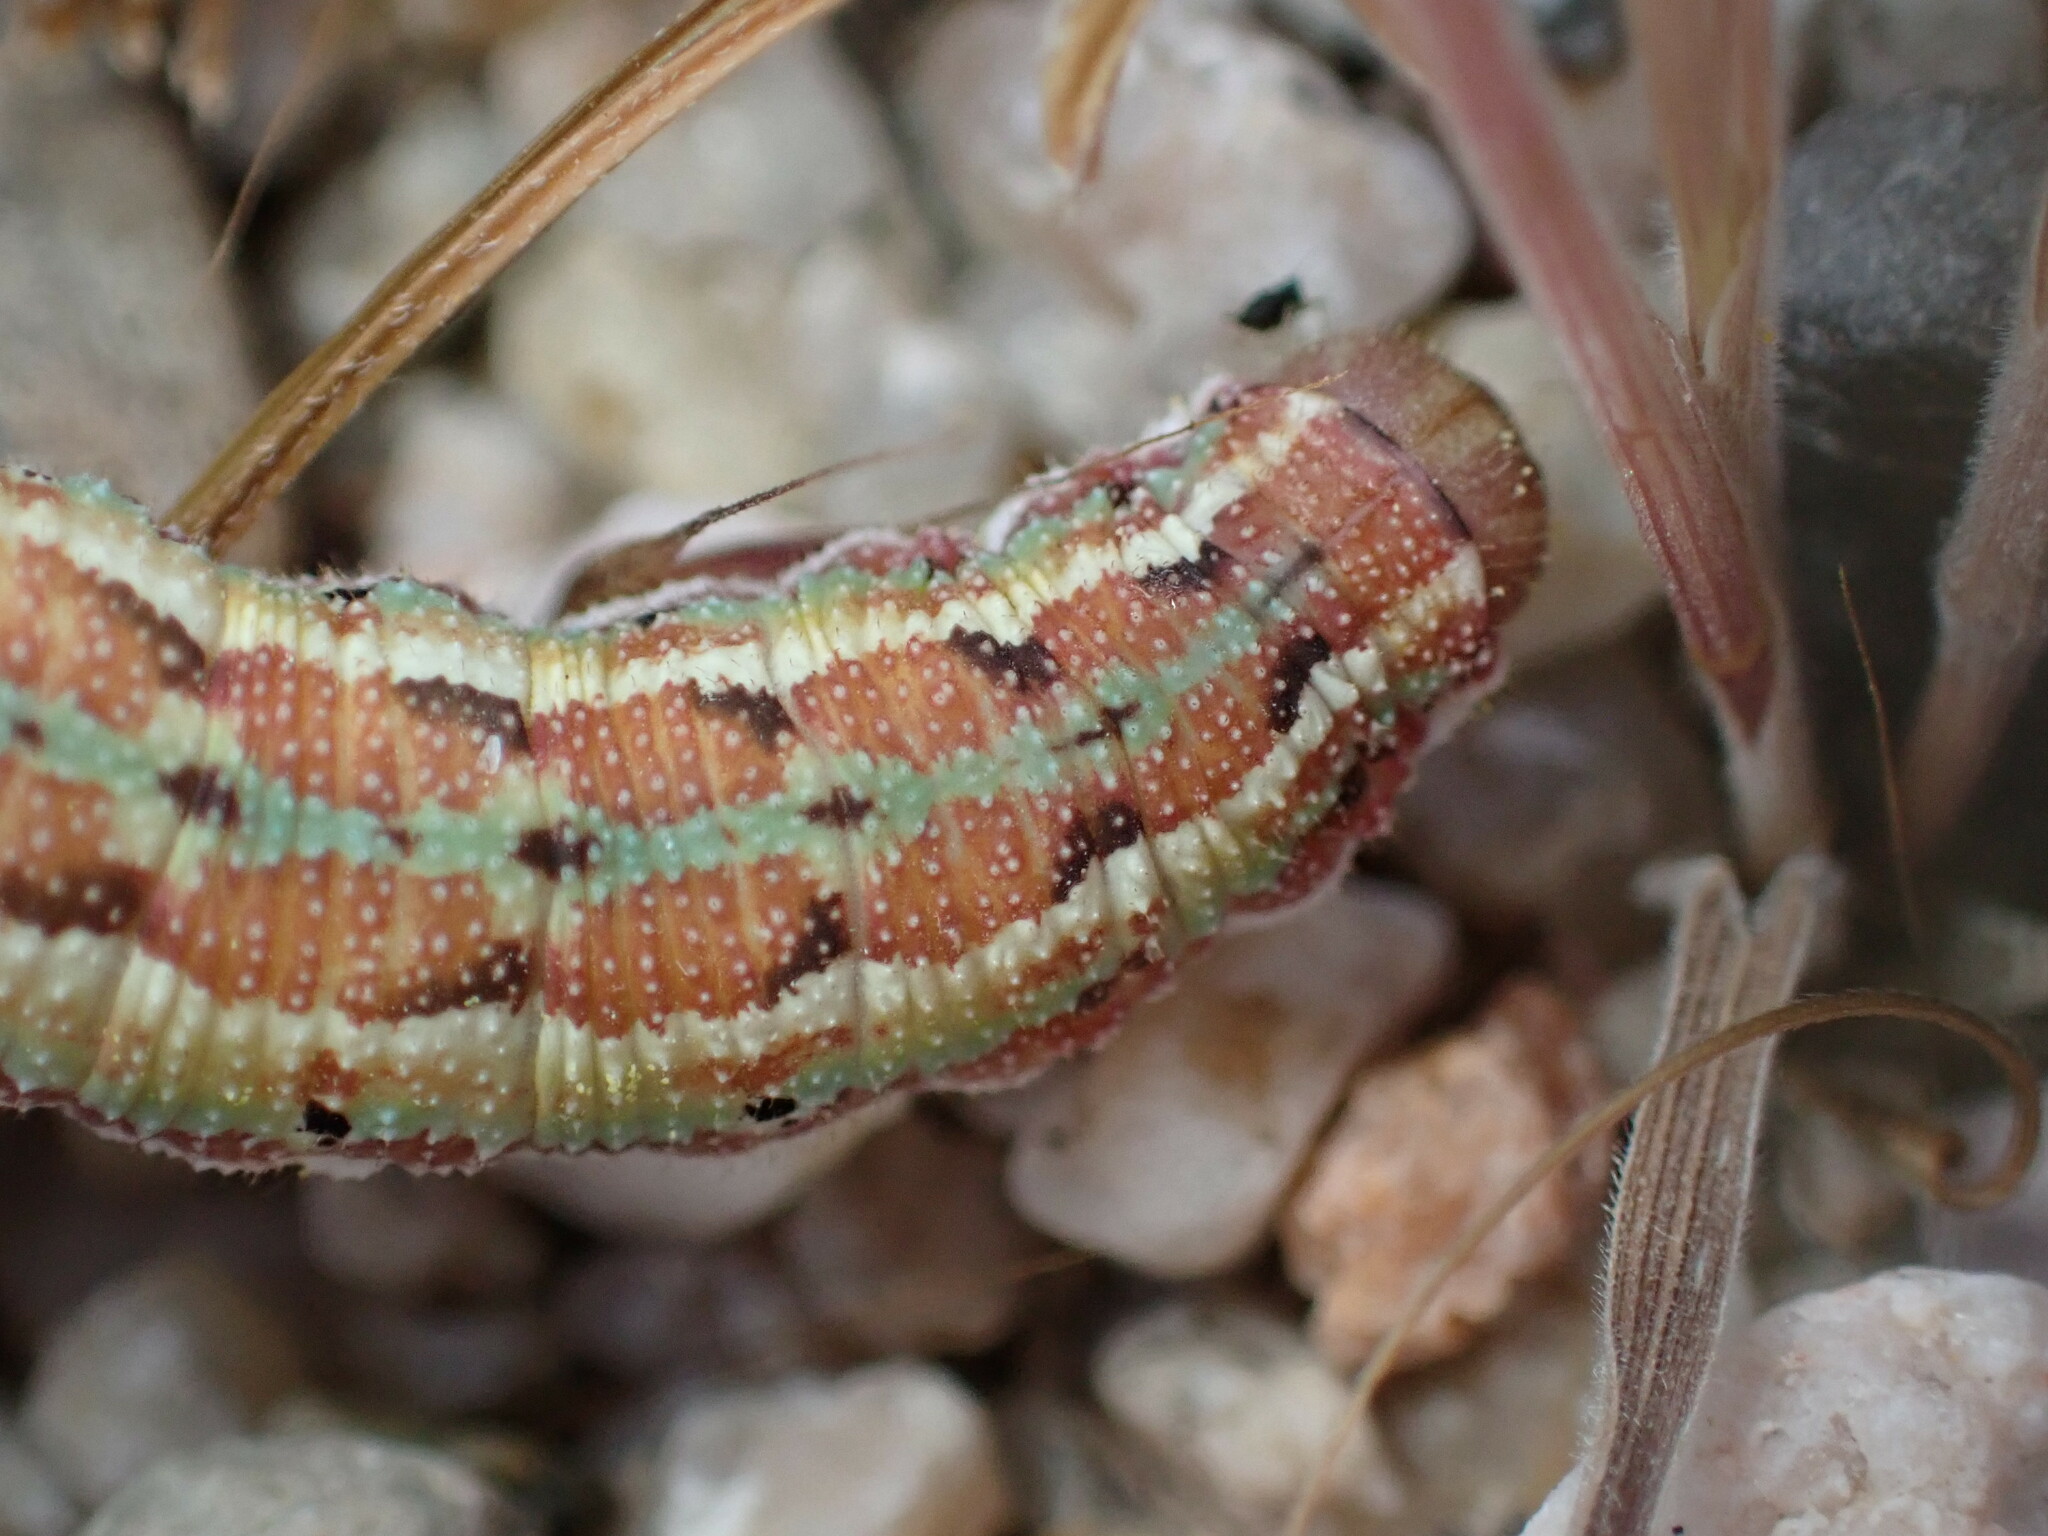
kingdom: Animalia
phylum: Arthropoda
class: Insecta
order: Lepidoptera
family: Sphingidae
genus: Euproserpinus
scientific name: Euproserpinus euterpe
